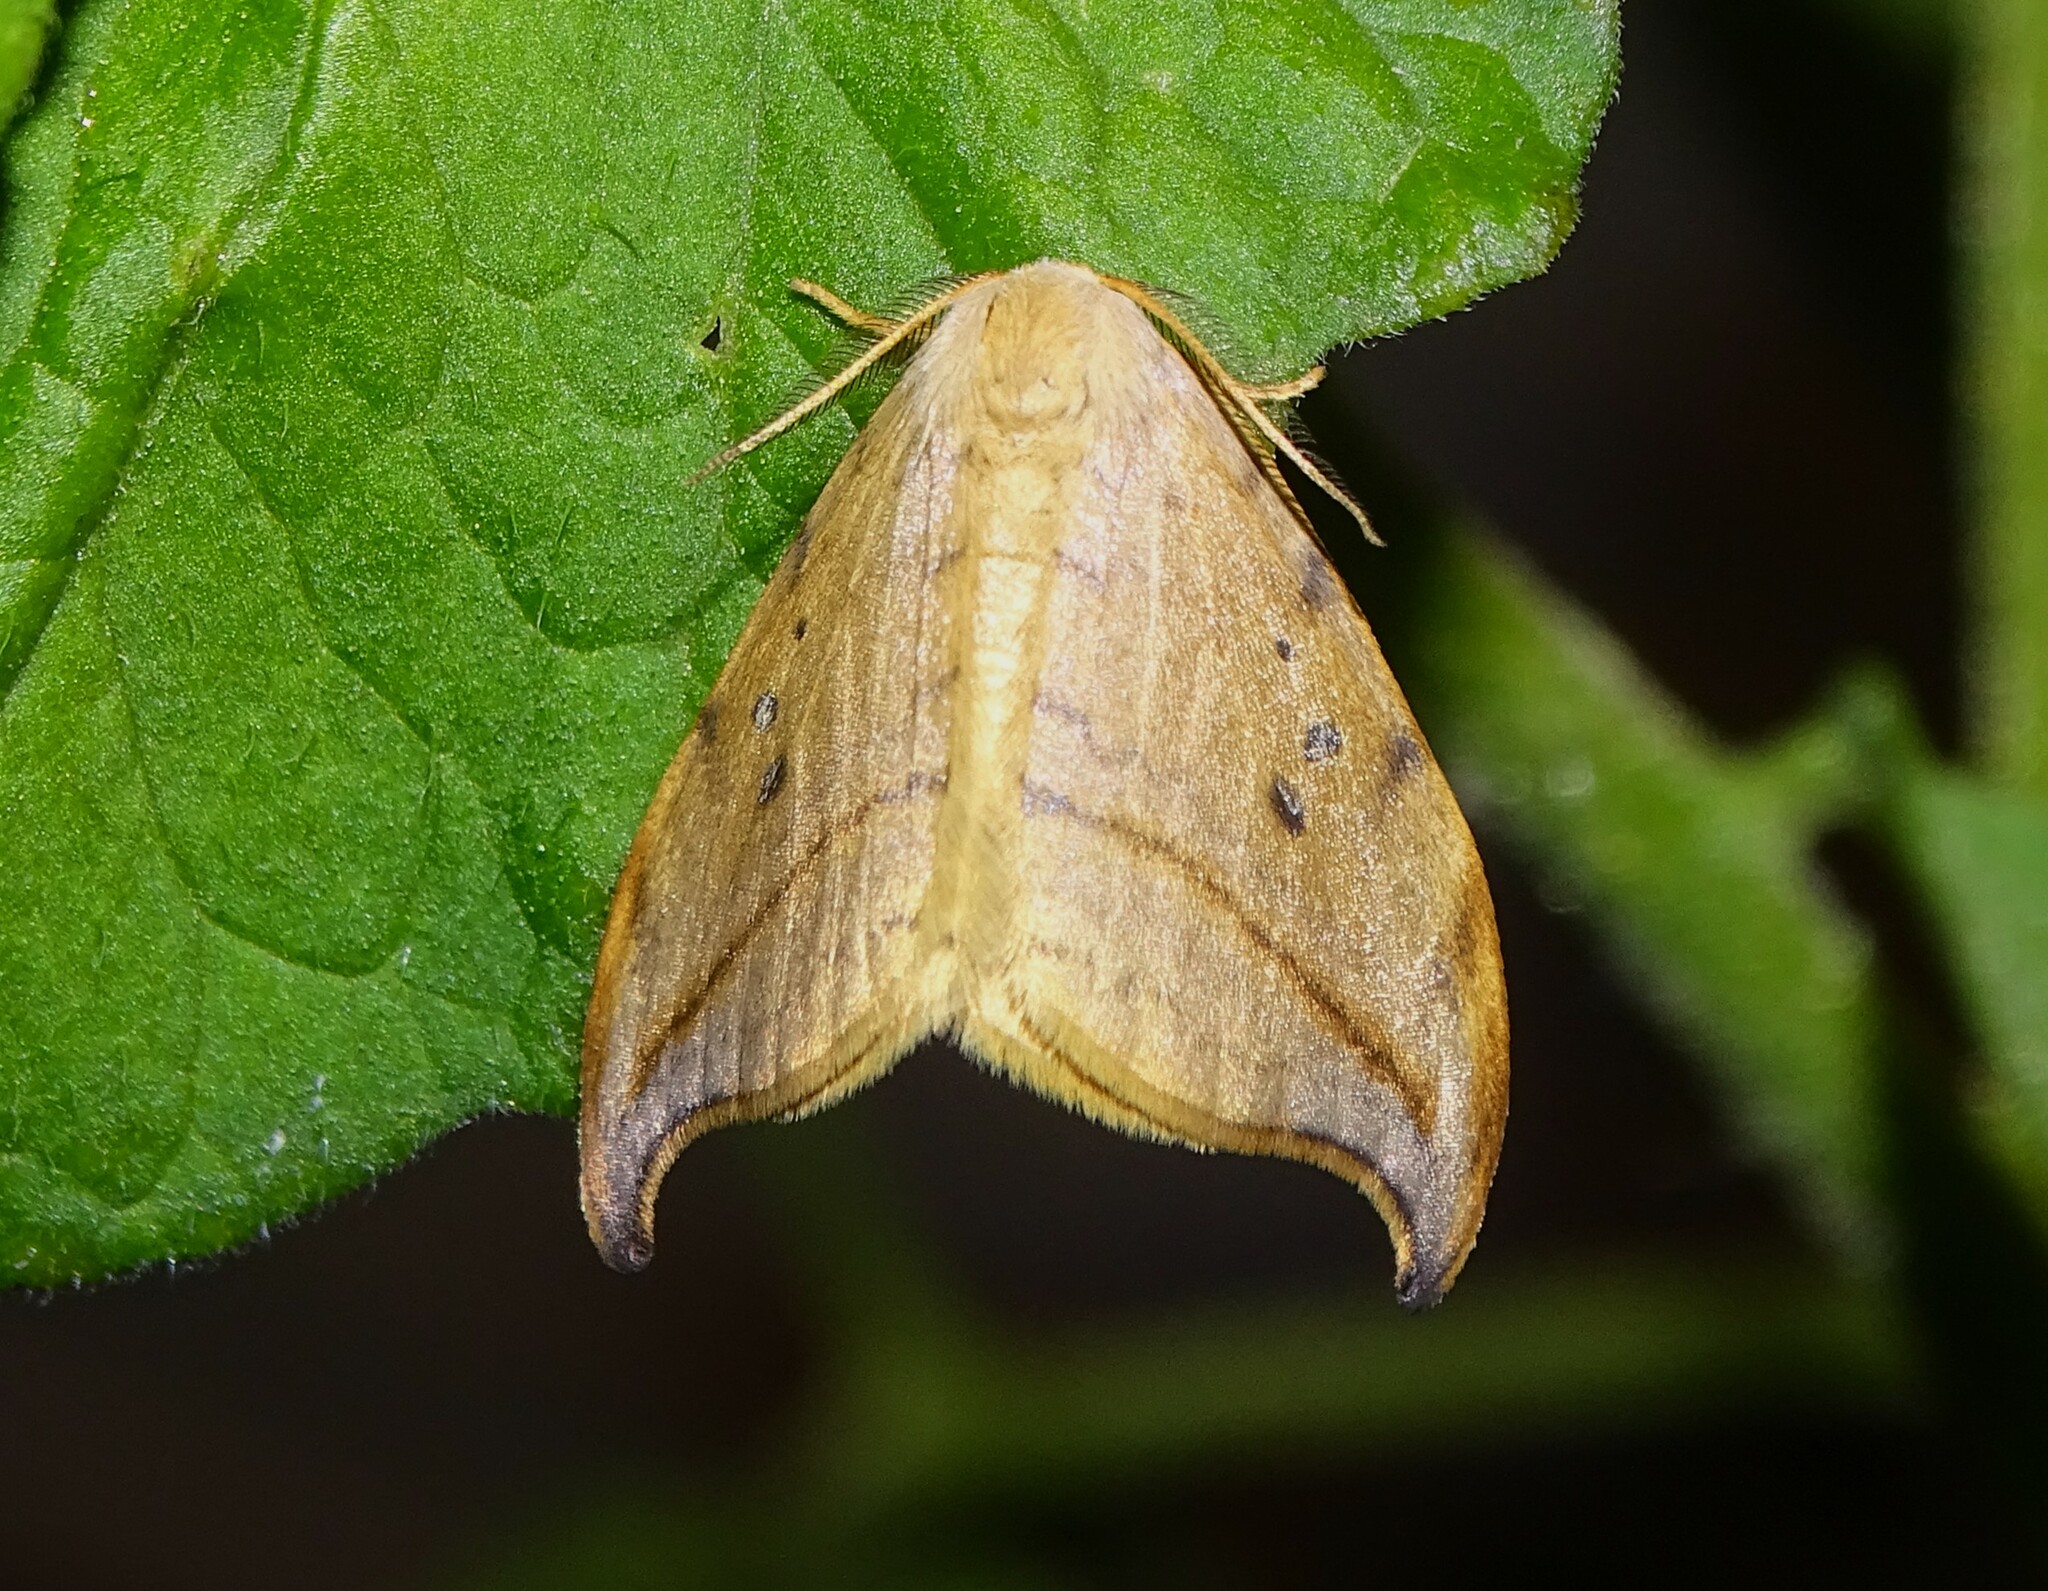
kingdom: Animalia
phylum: Arthropoda
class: Insecta
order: Lepidoptera
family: Drepanidae
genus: Drepana
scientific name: Drepana arcuata
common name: Arched hooktip moth
